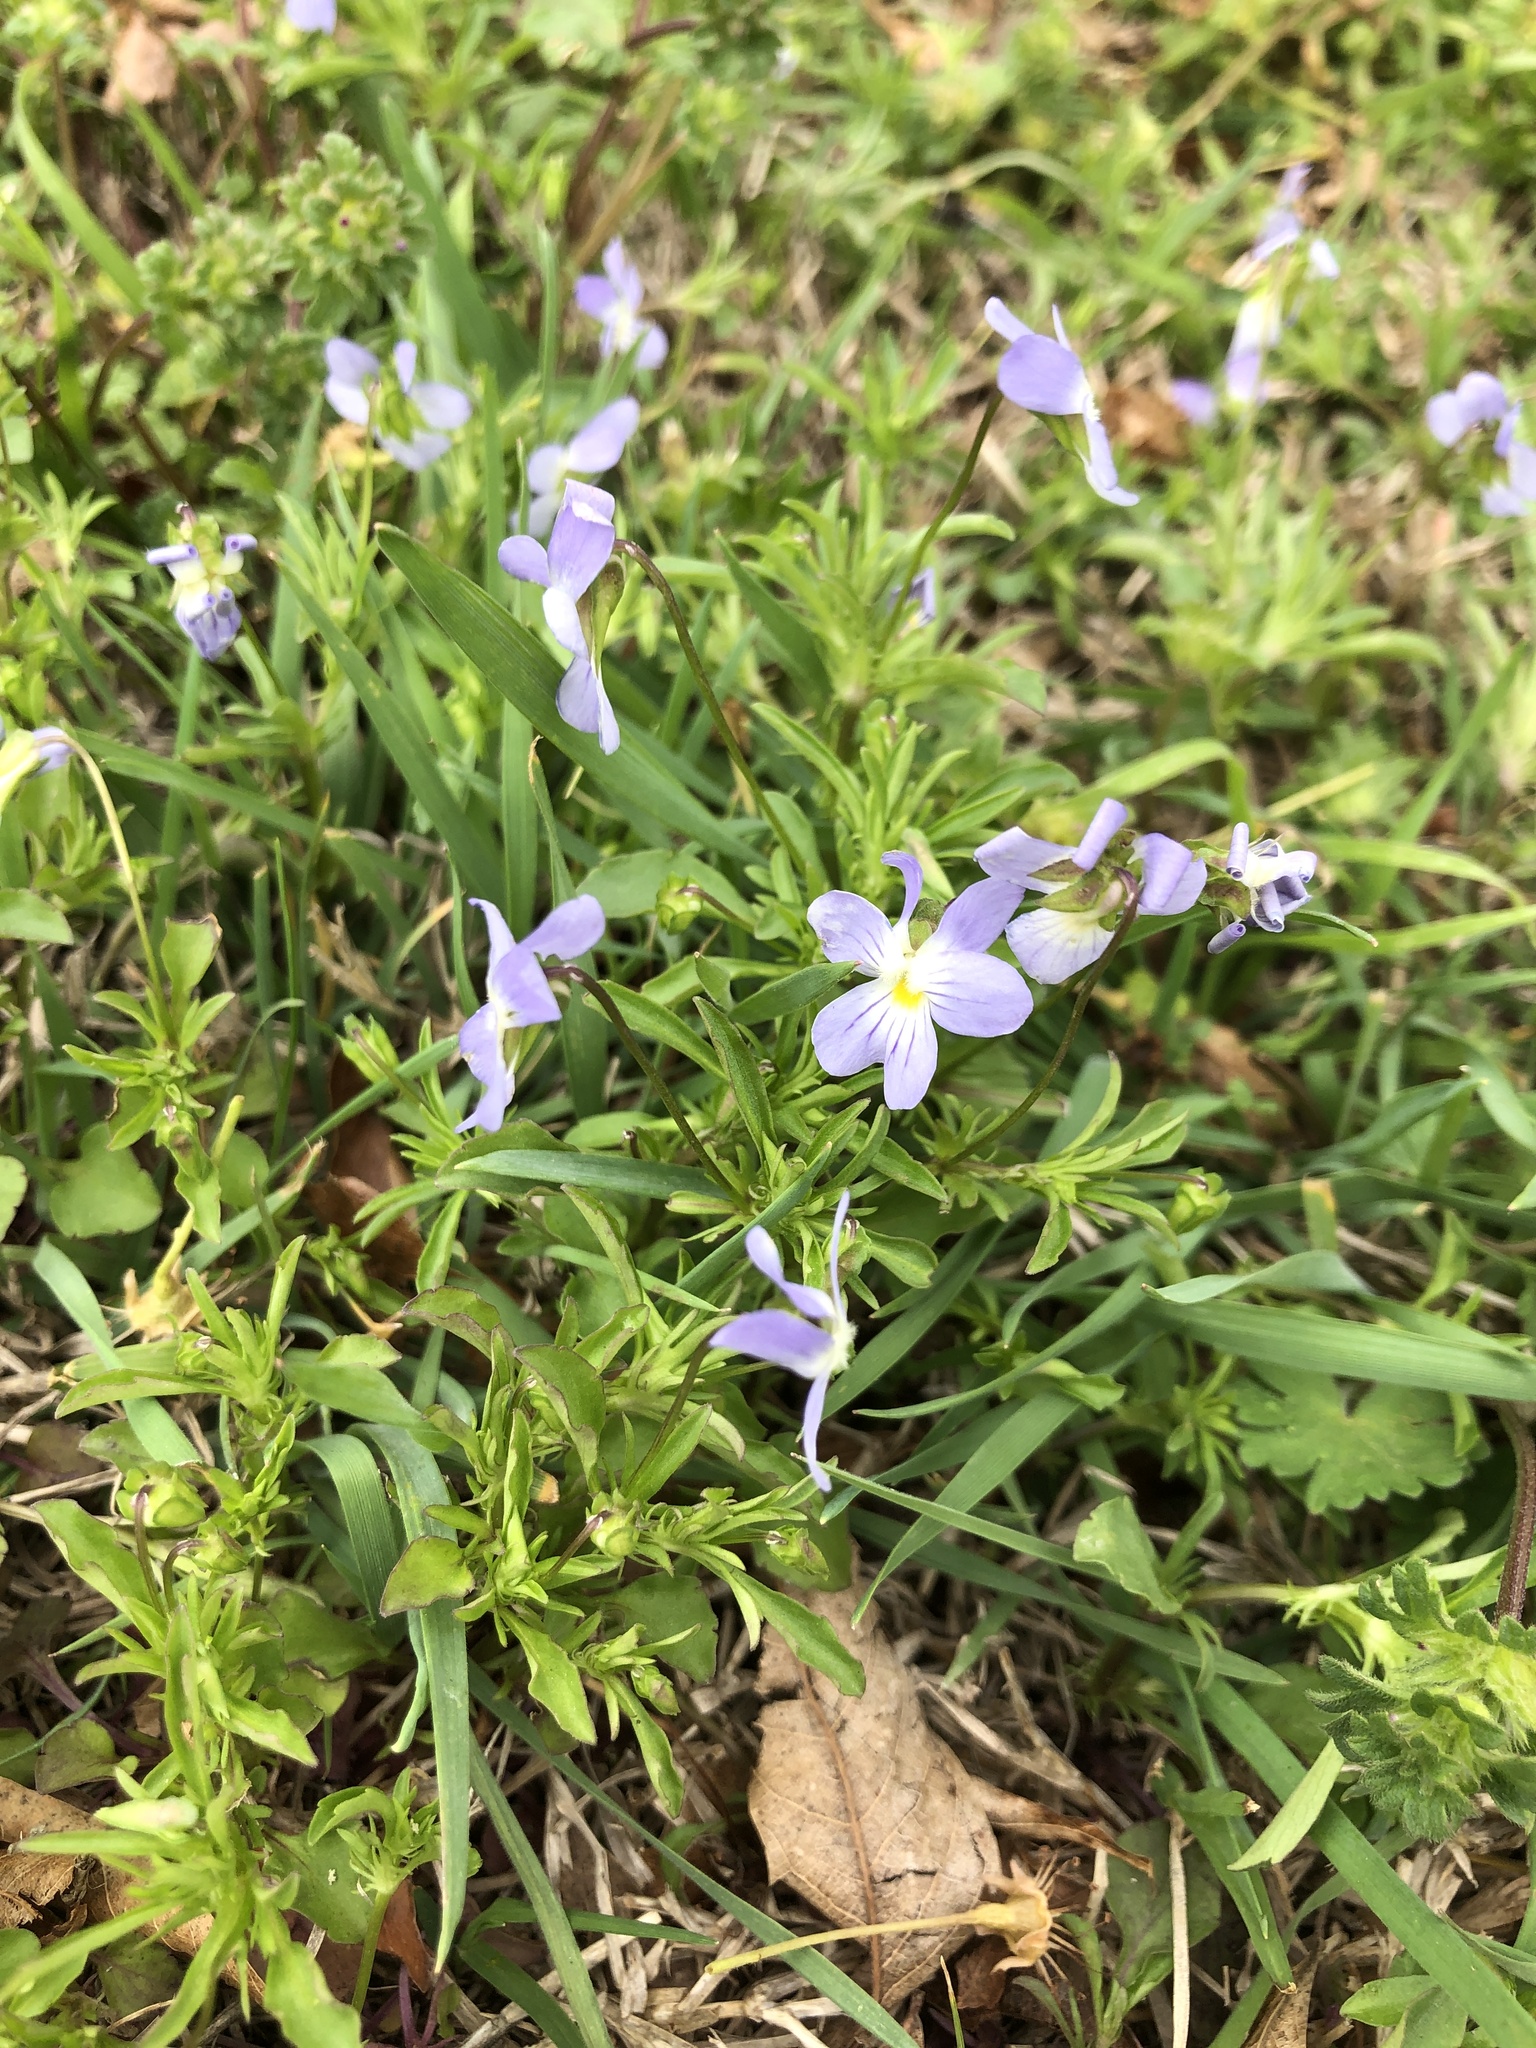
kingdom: Plantae
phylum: Tracheophyta
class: Magnoliopsida
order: Malpighiales
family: Violaceae
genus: Viola
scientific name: Viola rafinesquei
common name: American field pansy
